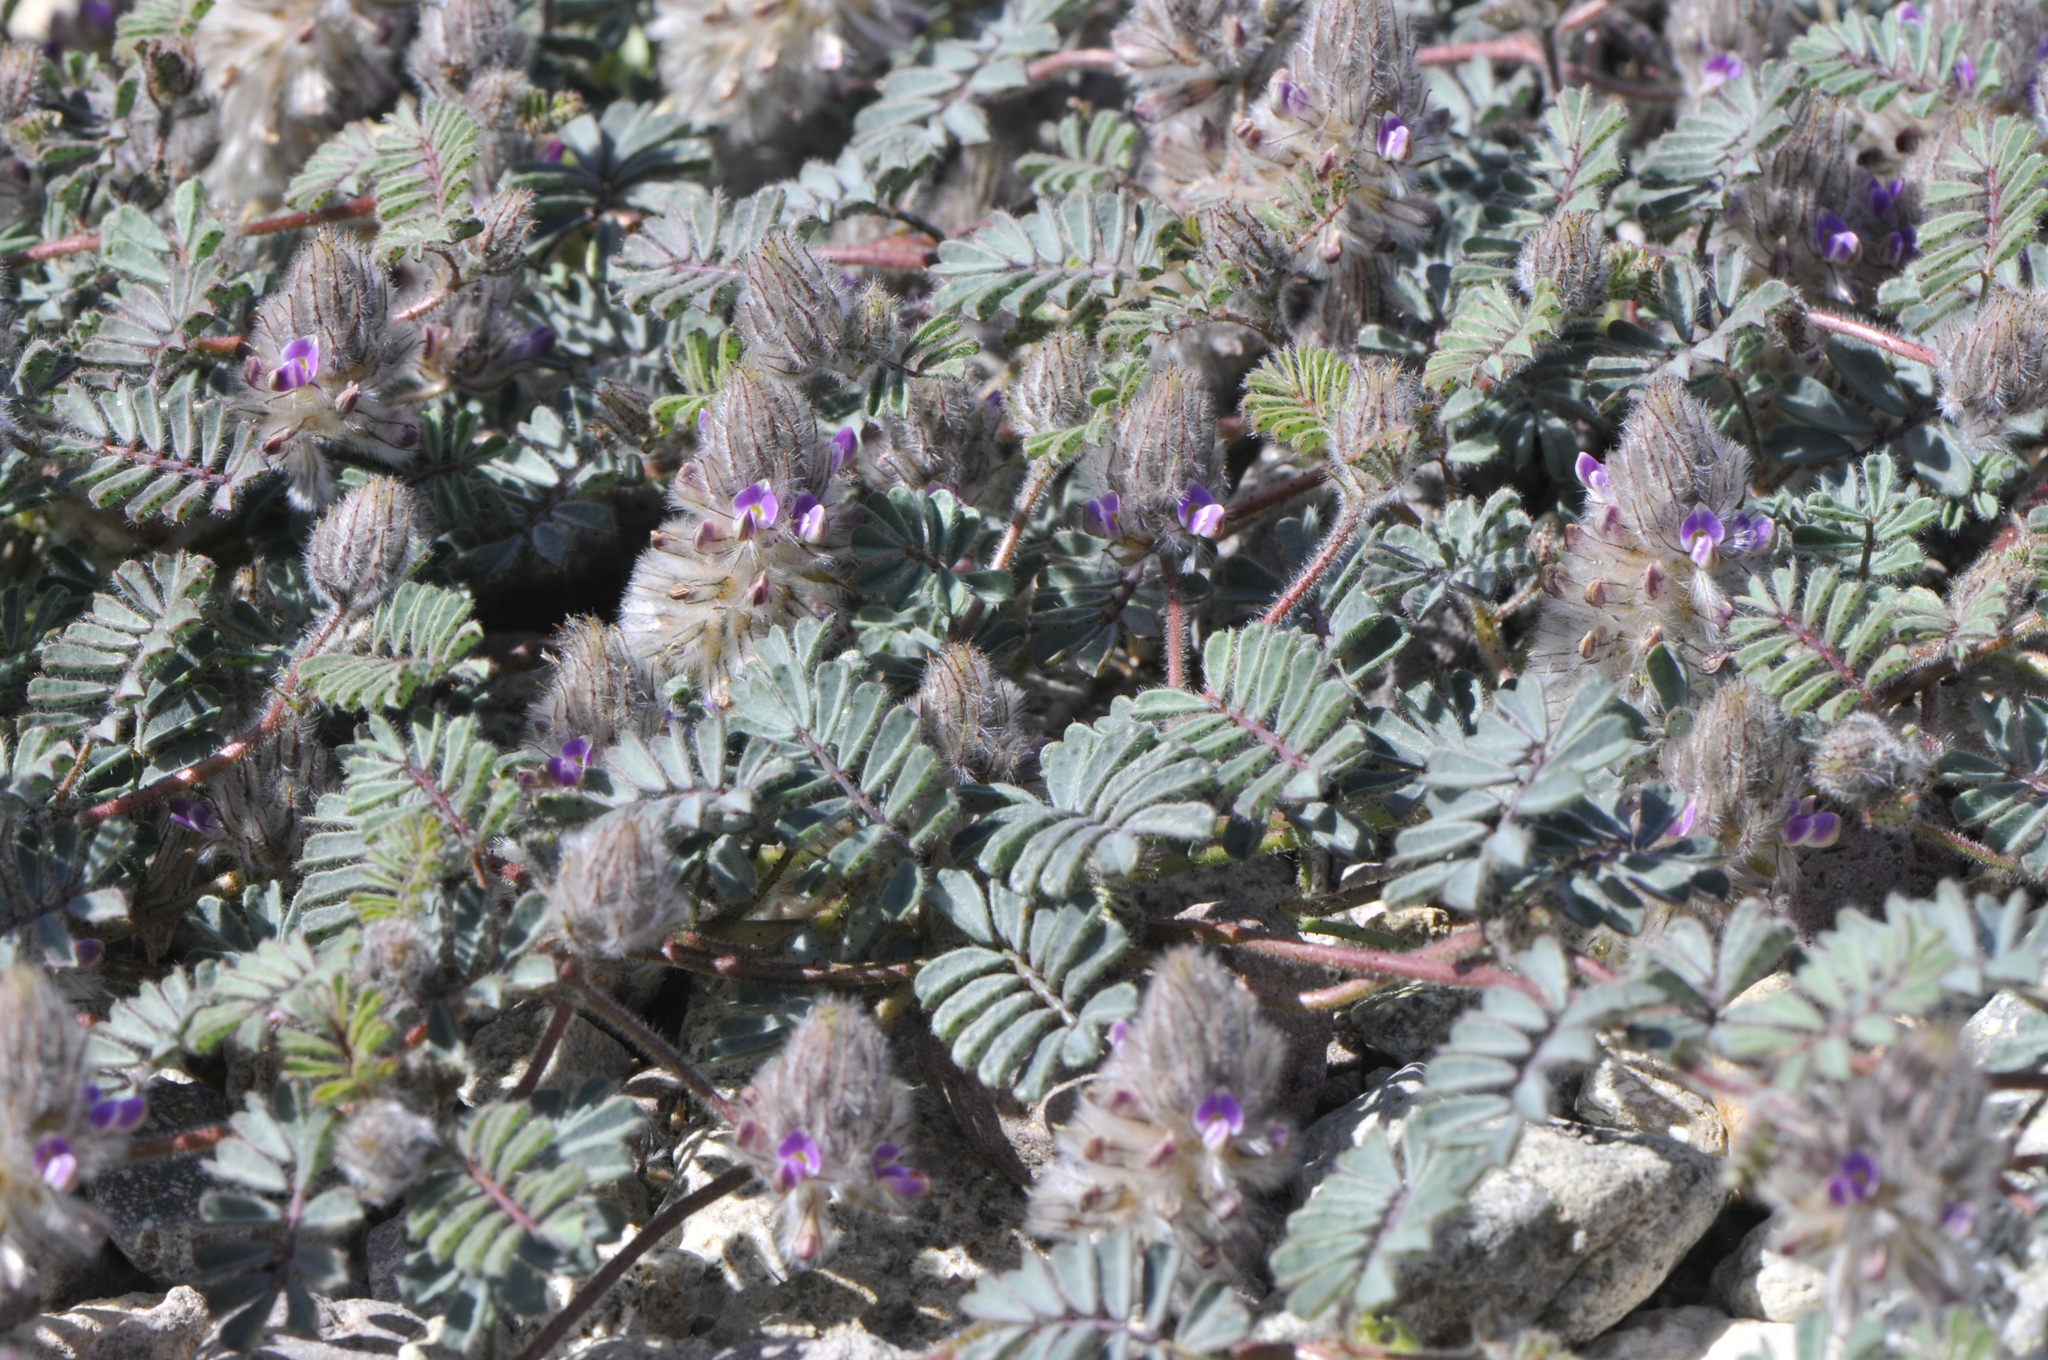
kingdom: Plantae
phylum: Tracheophyta
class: Magnoliopsida
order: Fabales
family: Fabaceae
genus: Dalea
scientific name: Dalea mollis
